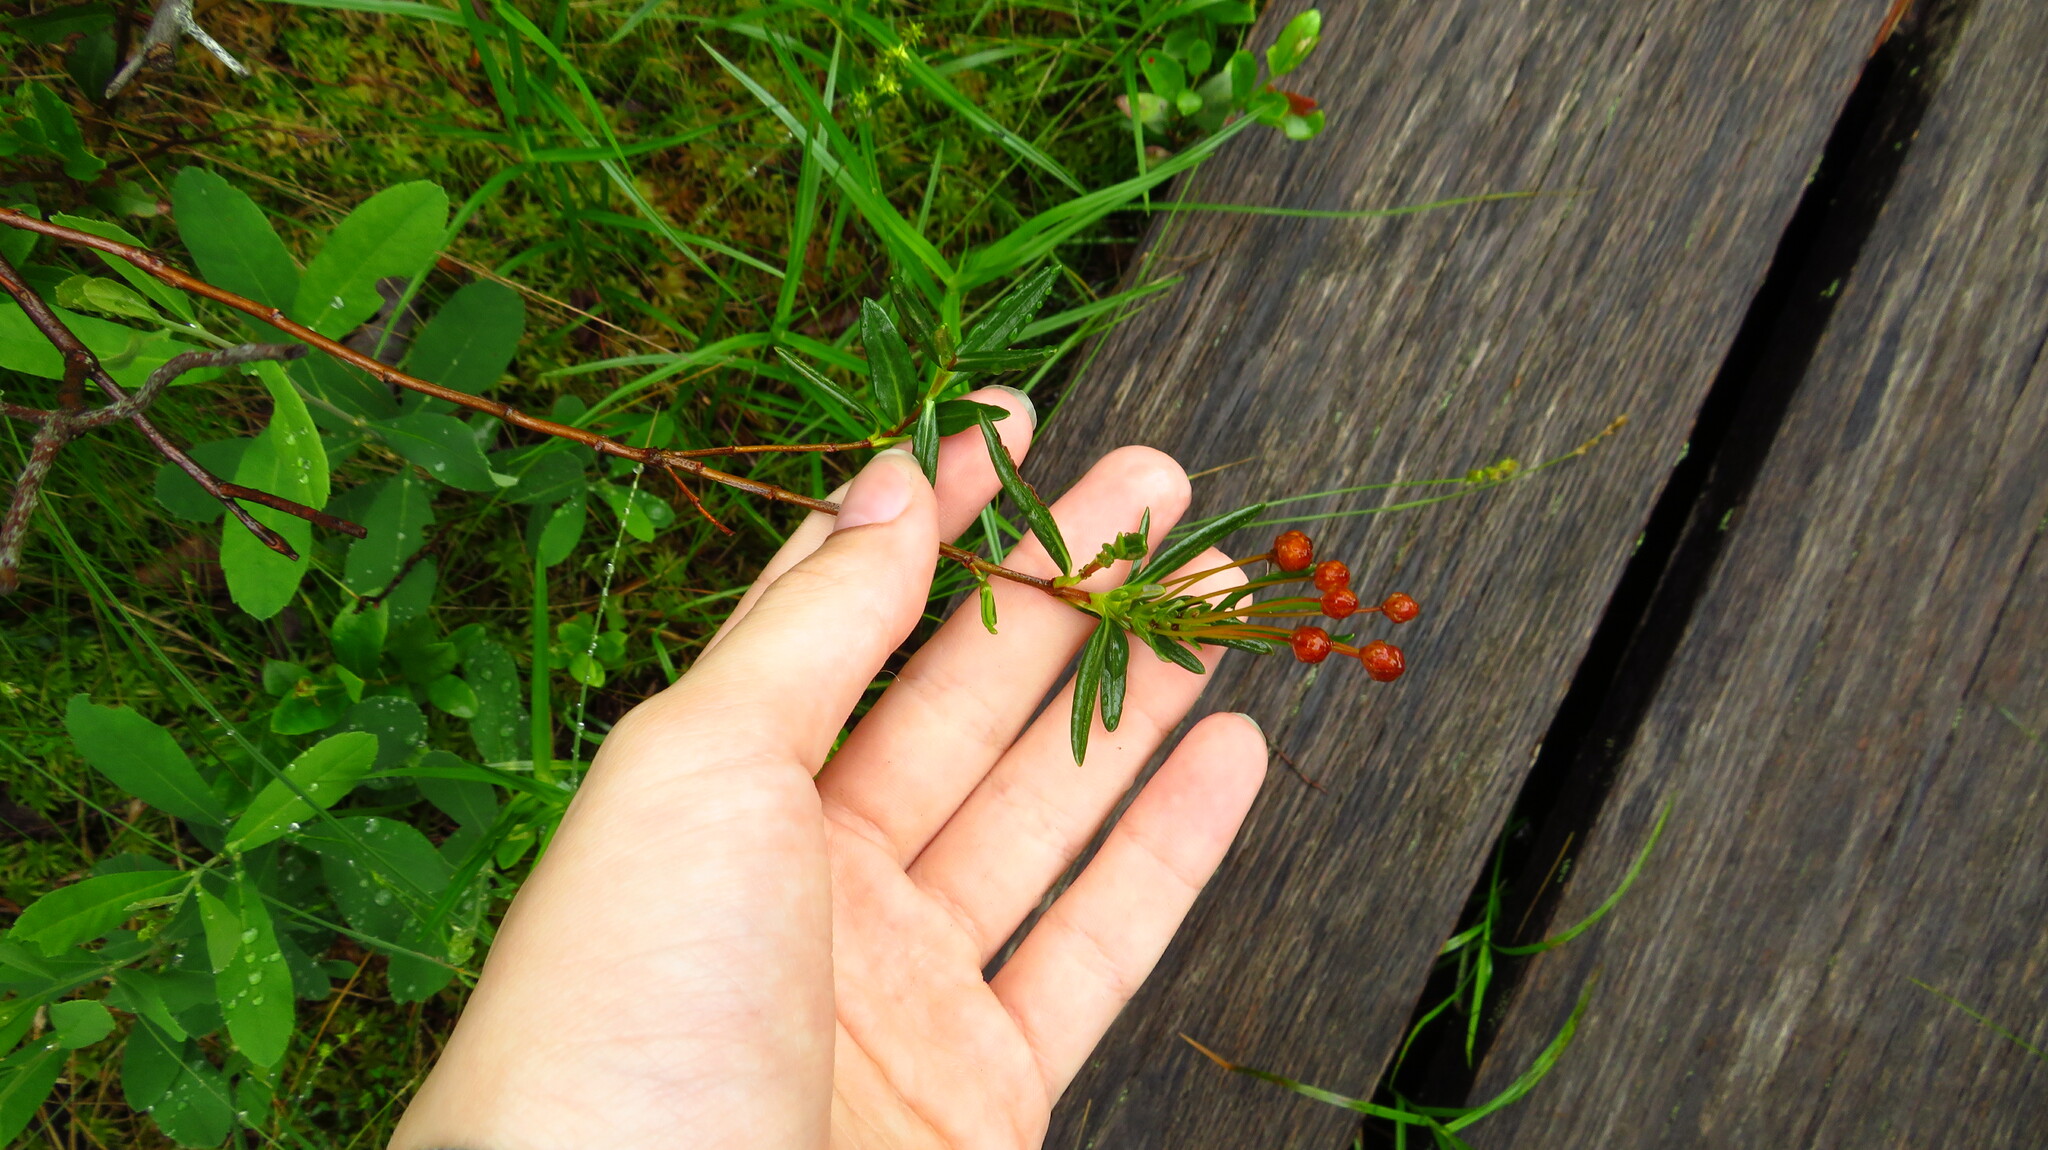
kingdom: Plantae
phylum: Tracheophyta
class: Magnoliopsida
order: Ericales
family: Ericaceae
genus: Kalmia
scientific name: Kalmia polifolia
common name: Bog-laurel
